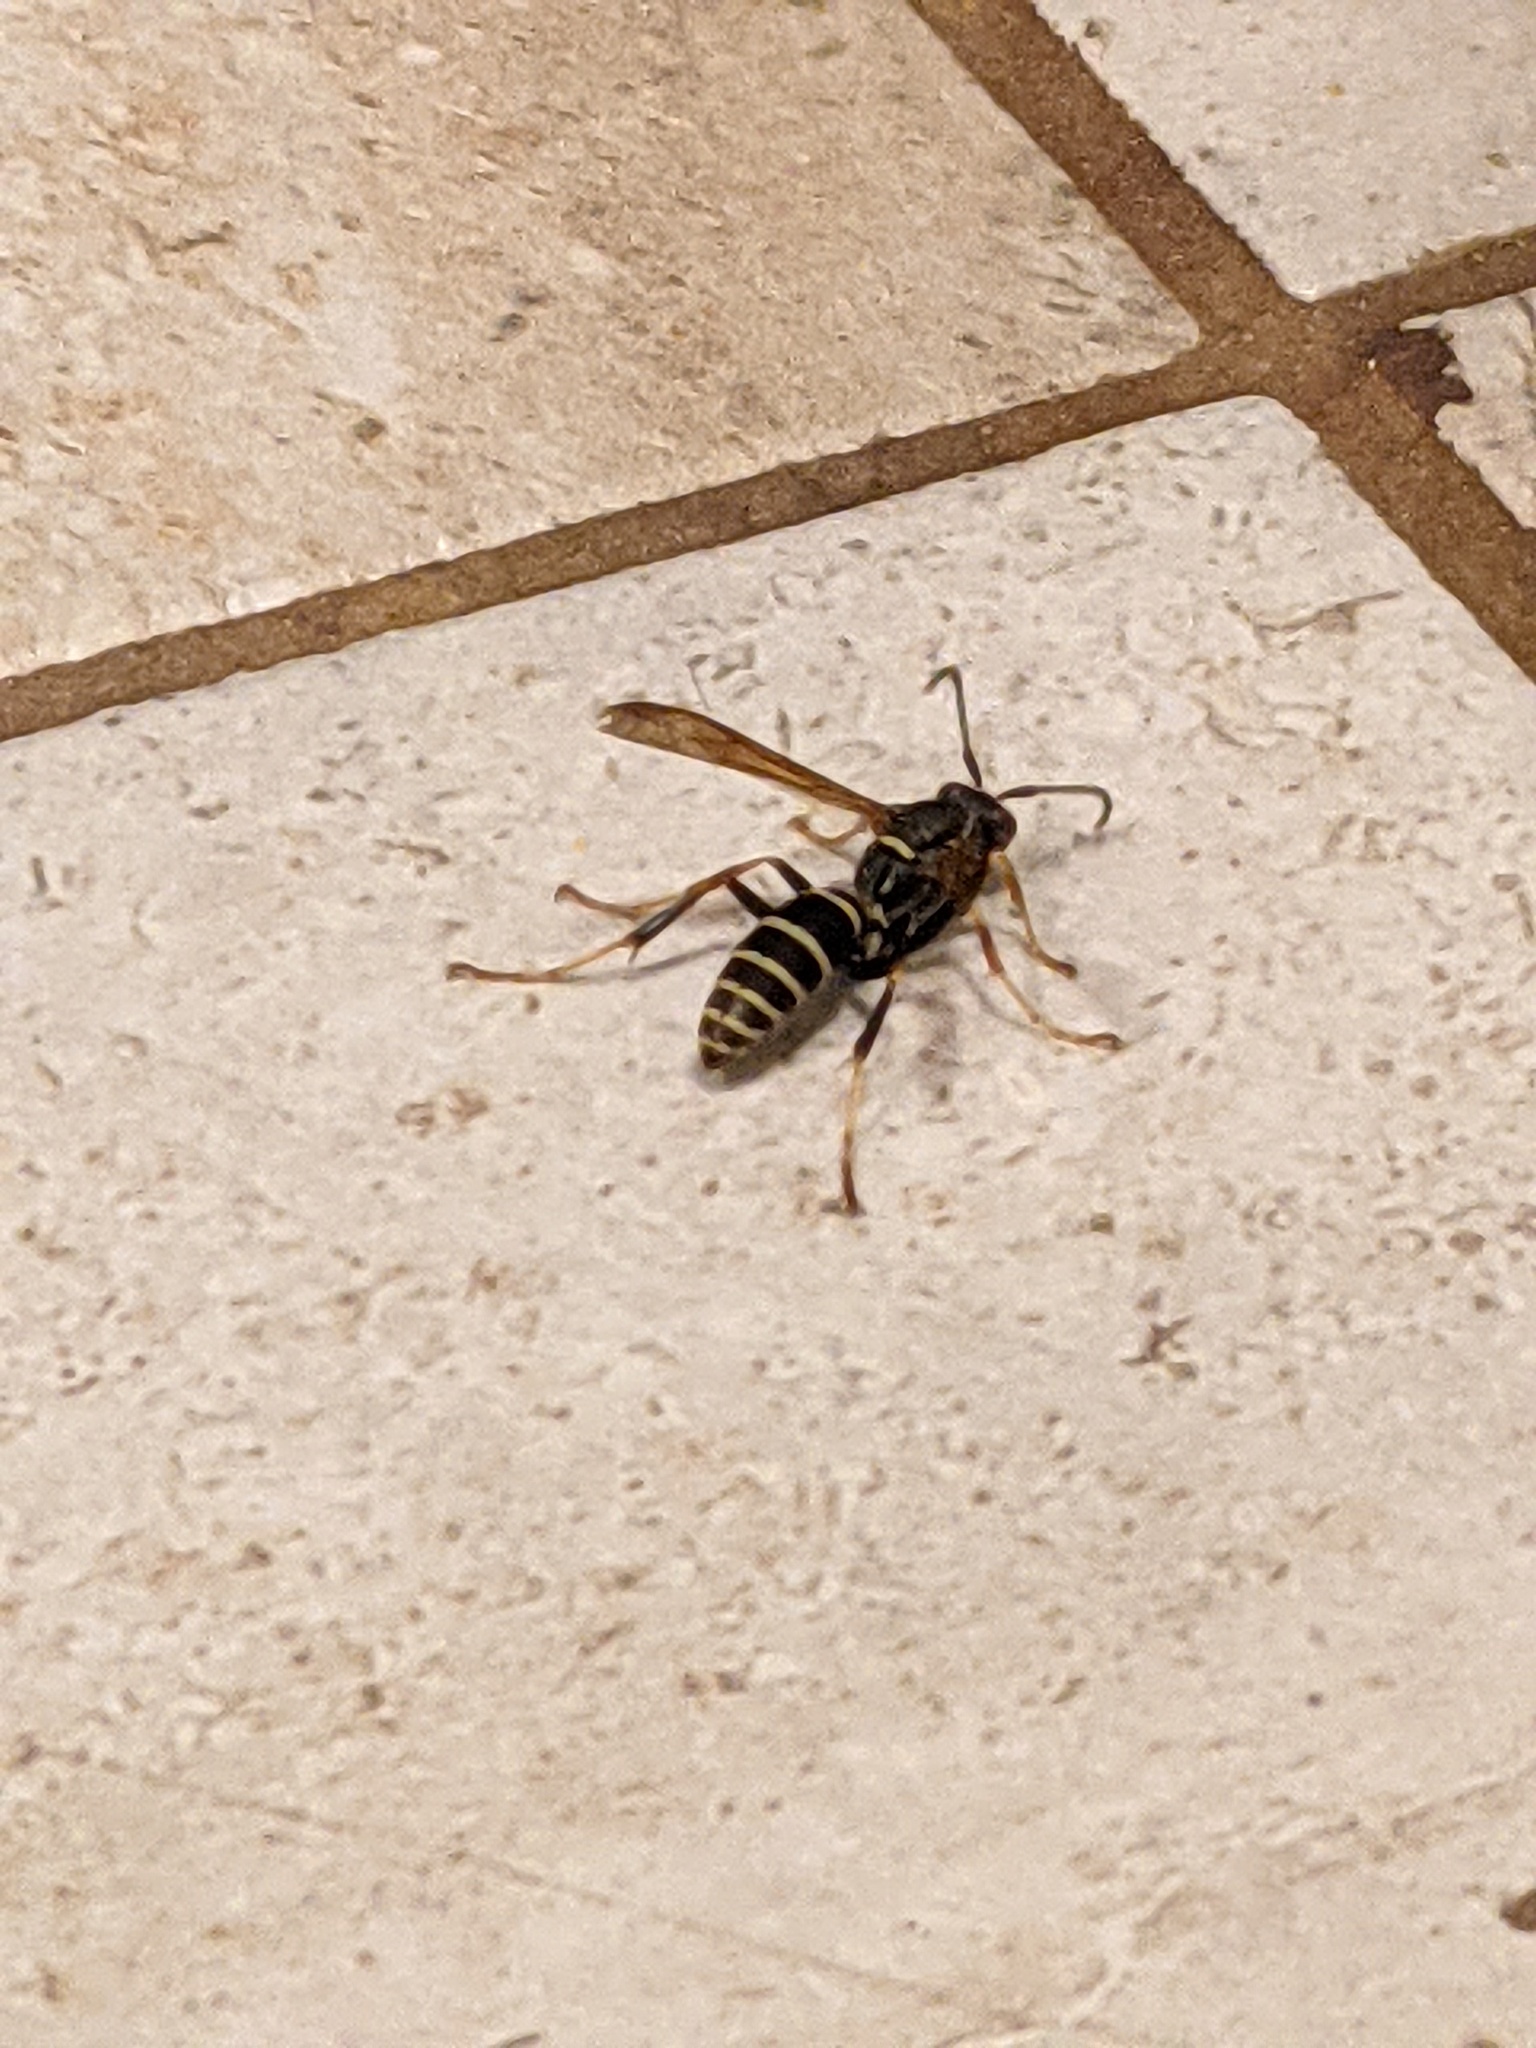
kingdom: Animalia
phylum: Arthropoda
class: Insecta
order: Hymenoptera
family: Eumenidae
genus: Polistes
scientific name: Polistes fuscatus
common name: Dark paper wasp
